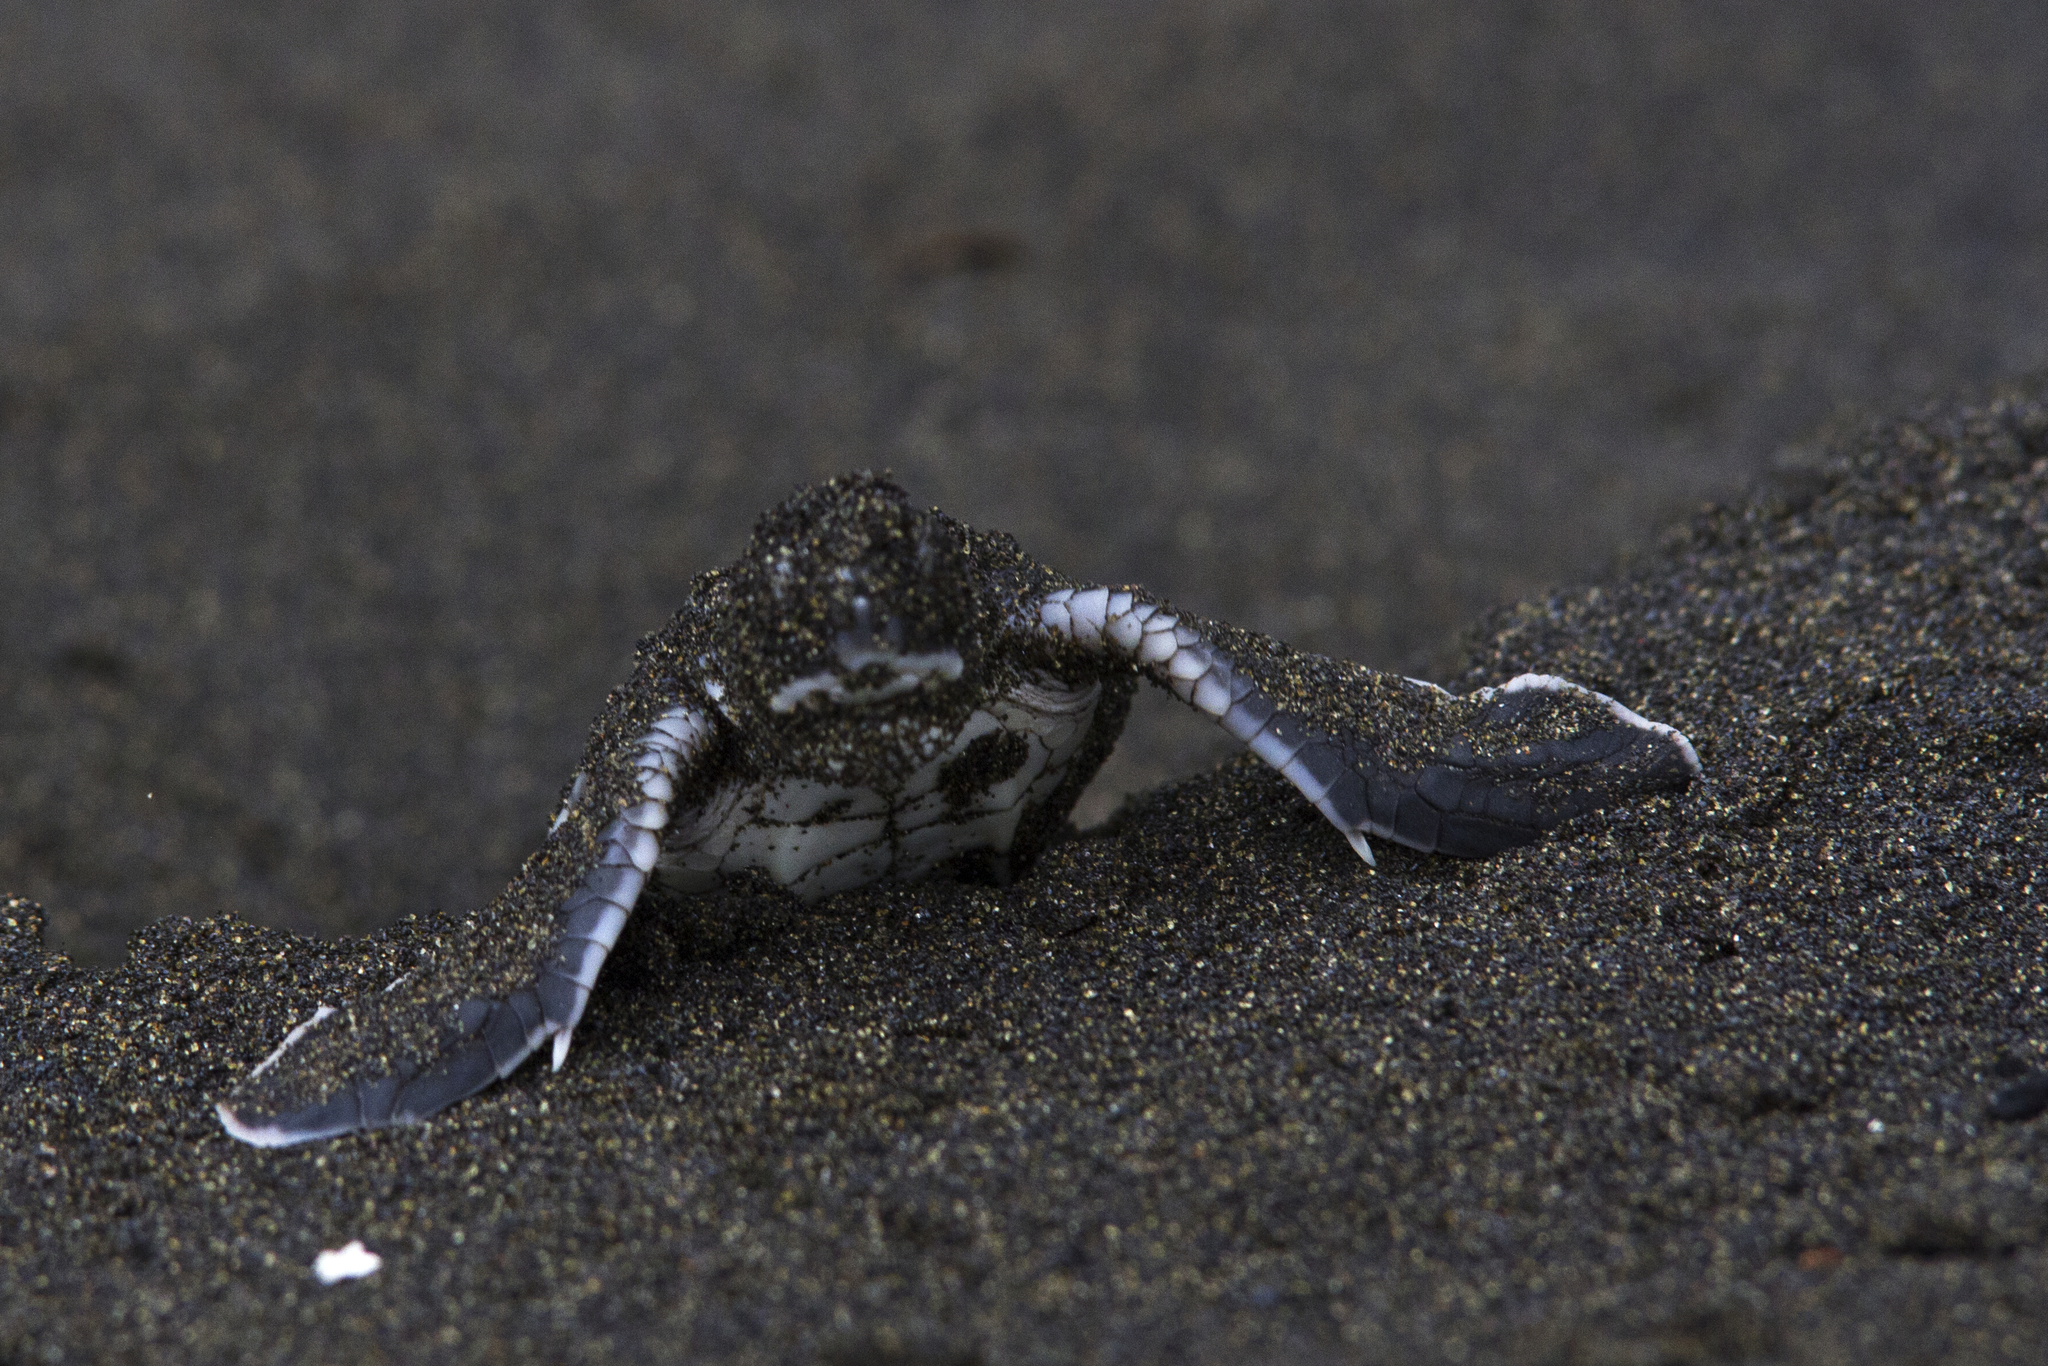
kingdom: Animalia
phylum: Chordata
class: Testudines
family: Cheloniidae
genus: Chelonia
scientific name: Chelonia mydas
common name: Green turtle
